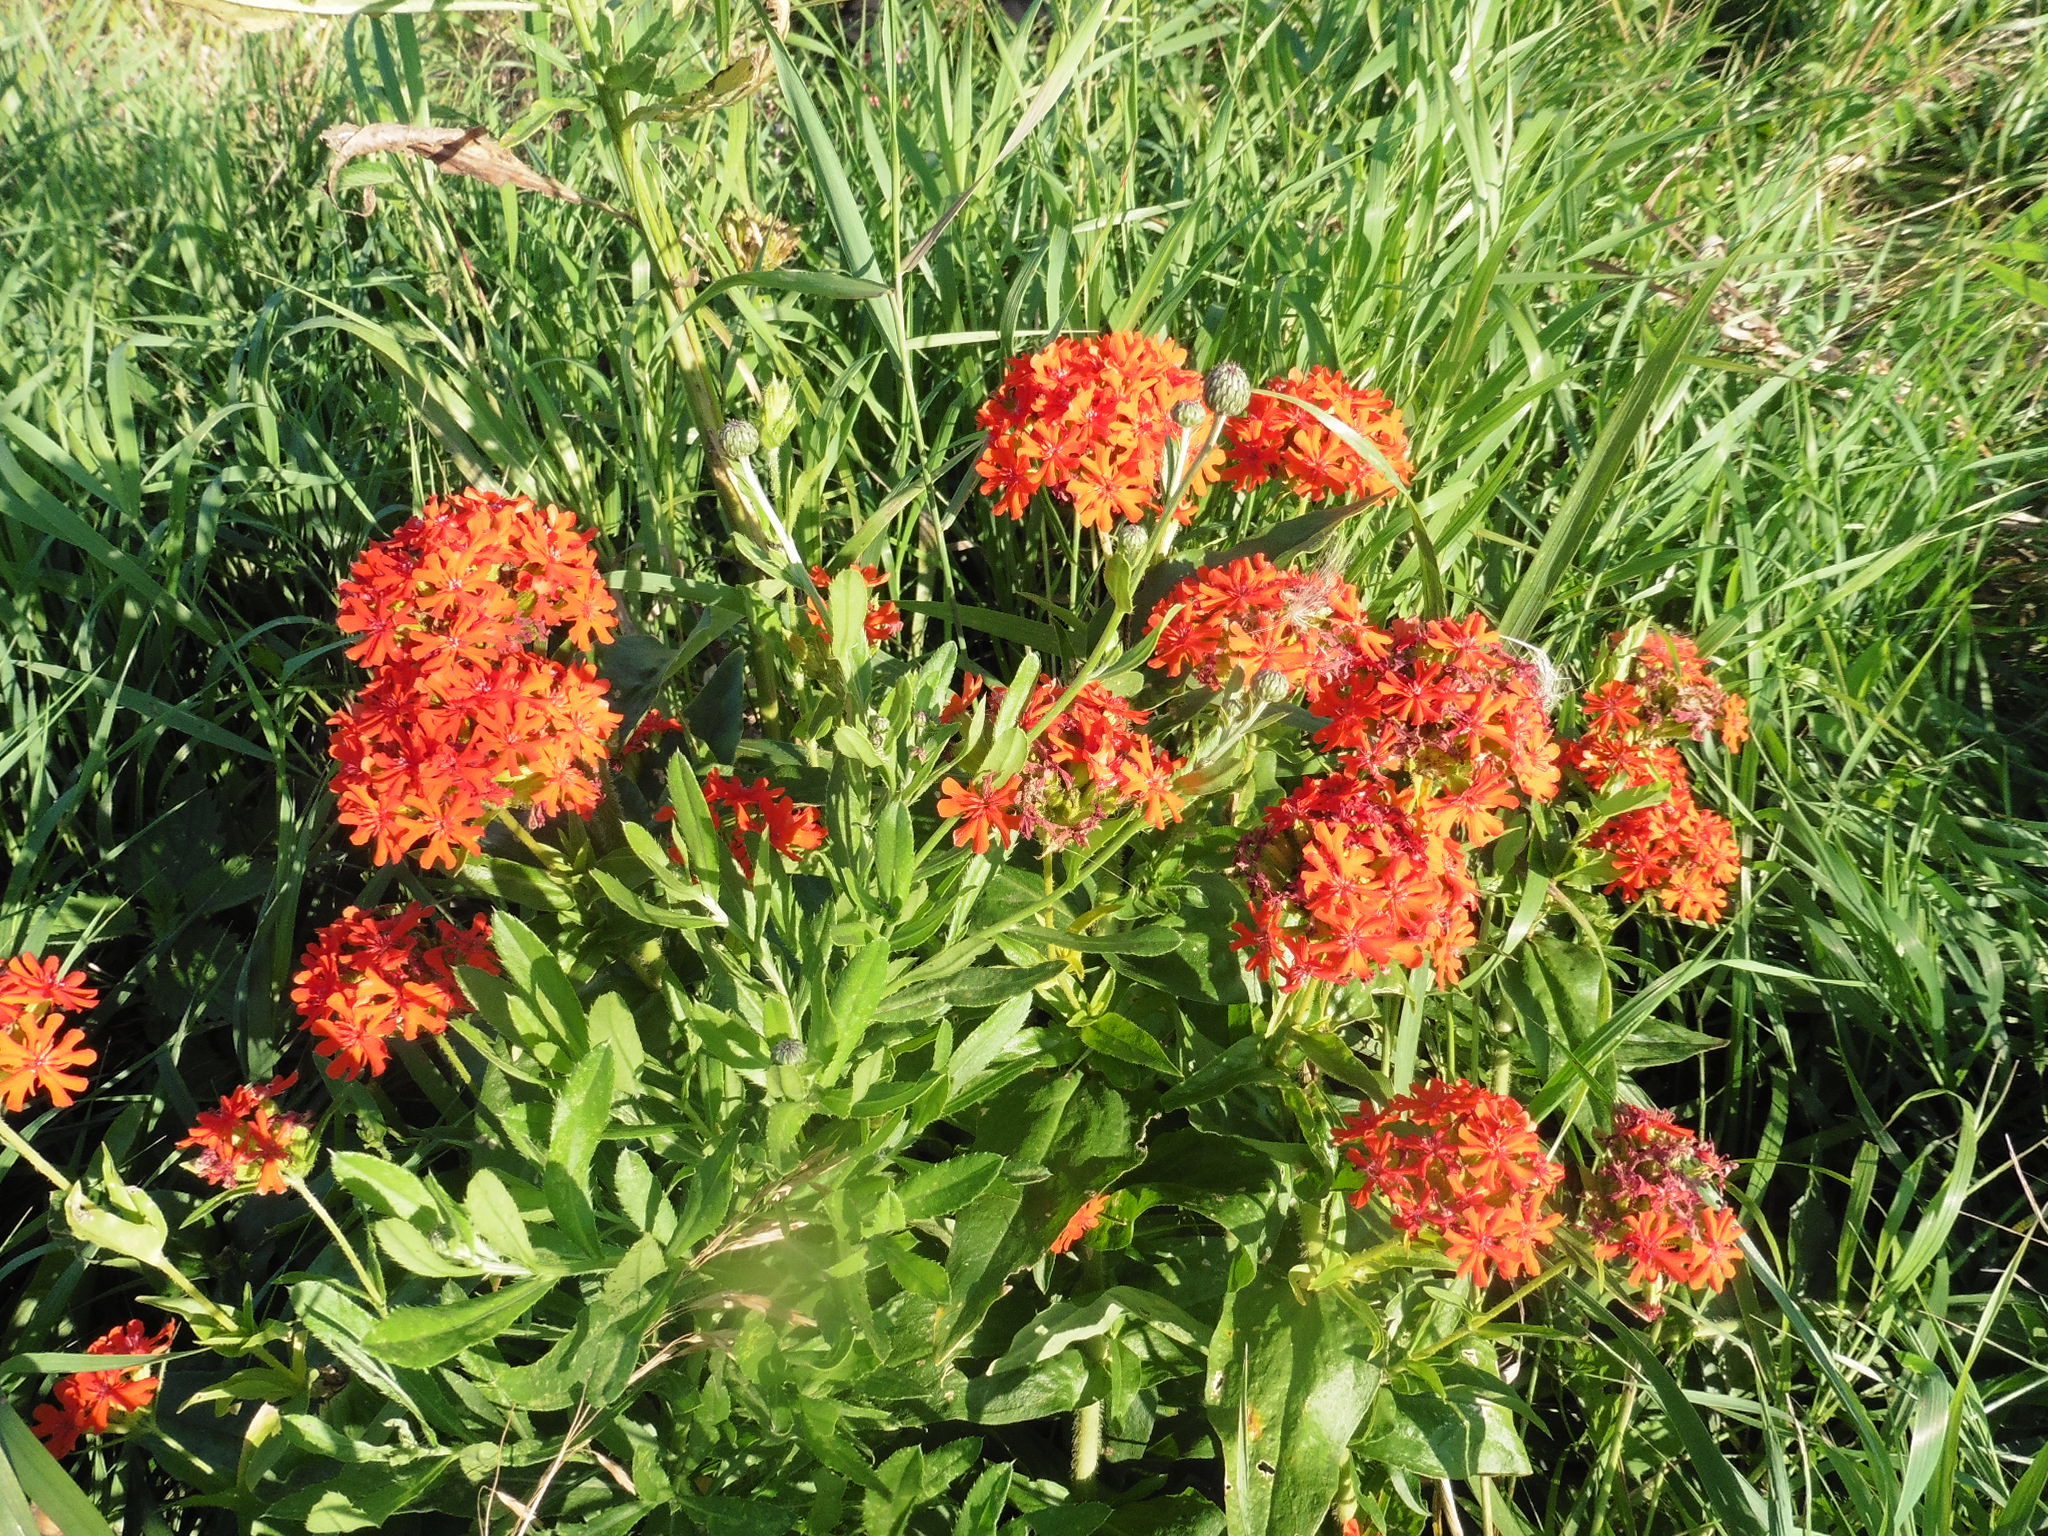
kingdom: Plantae
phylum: Tracheophyta
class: Magnoliopsida
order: Caryophyllales
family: Caryophyllaceae
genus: Silene
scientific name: Silene chalcedonica
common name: Maltese-cross
